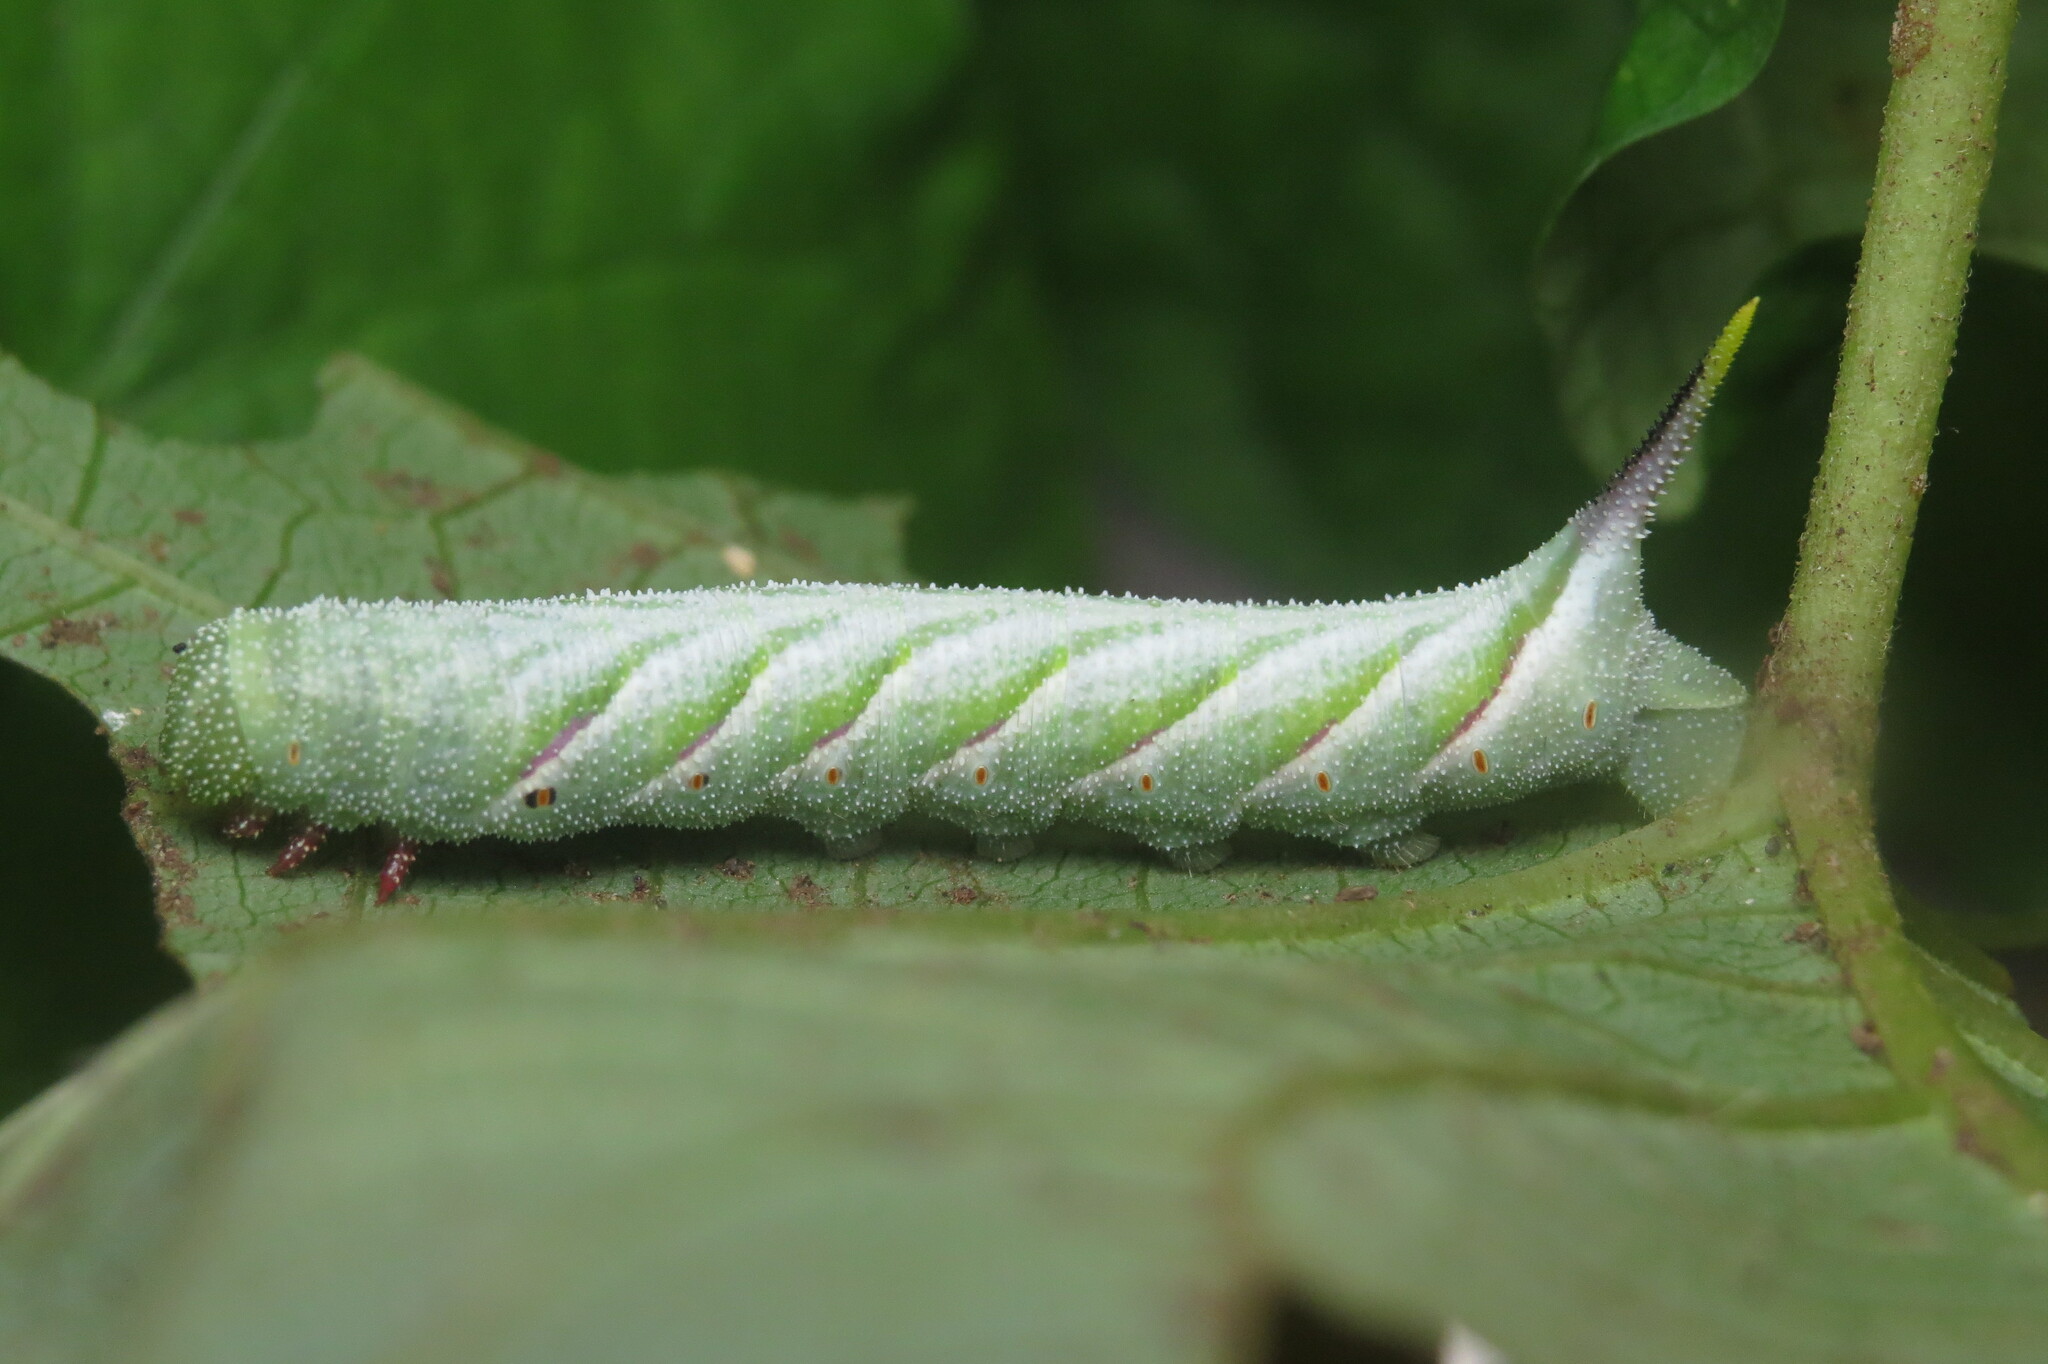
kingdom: Animalia
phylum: Arthropoda
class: Insecta
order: Lepidoptera
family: Sphingidae
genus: Agrius
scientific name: Agrius cingulata
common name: Pink-spotted hawkmoth
